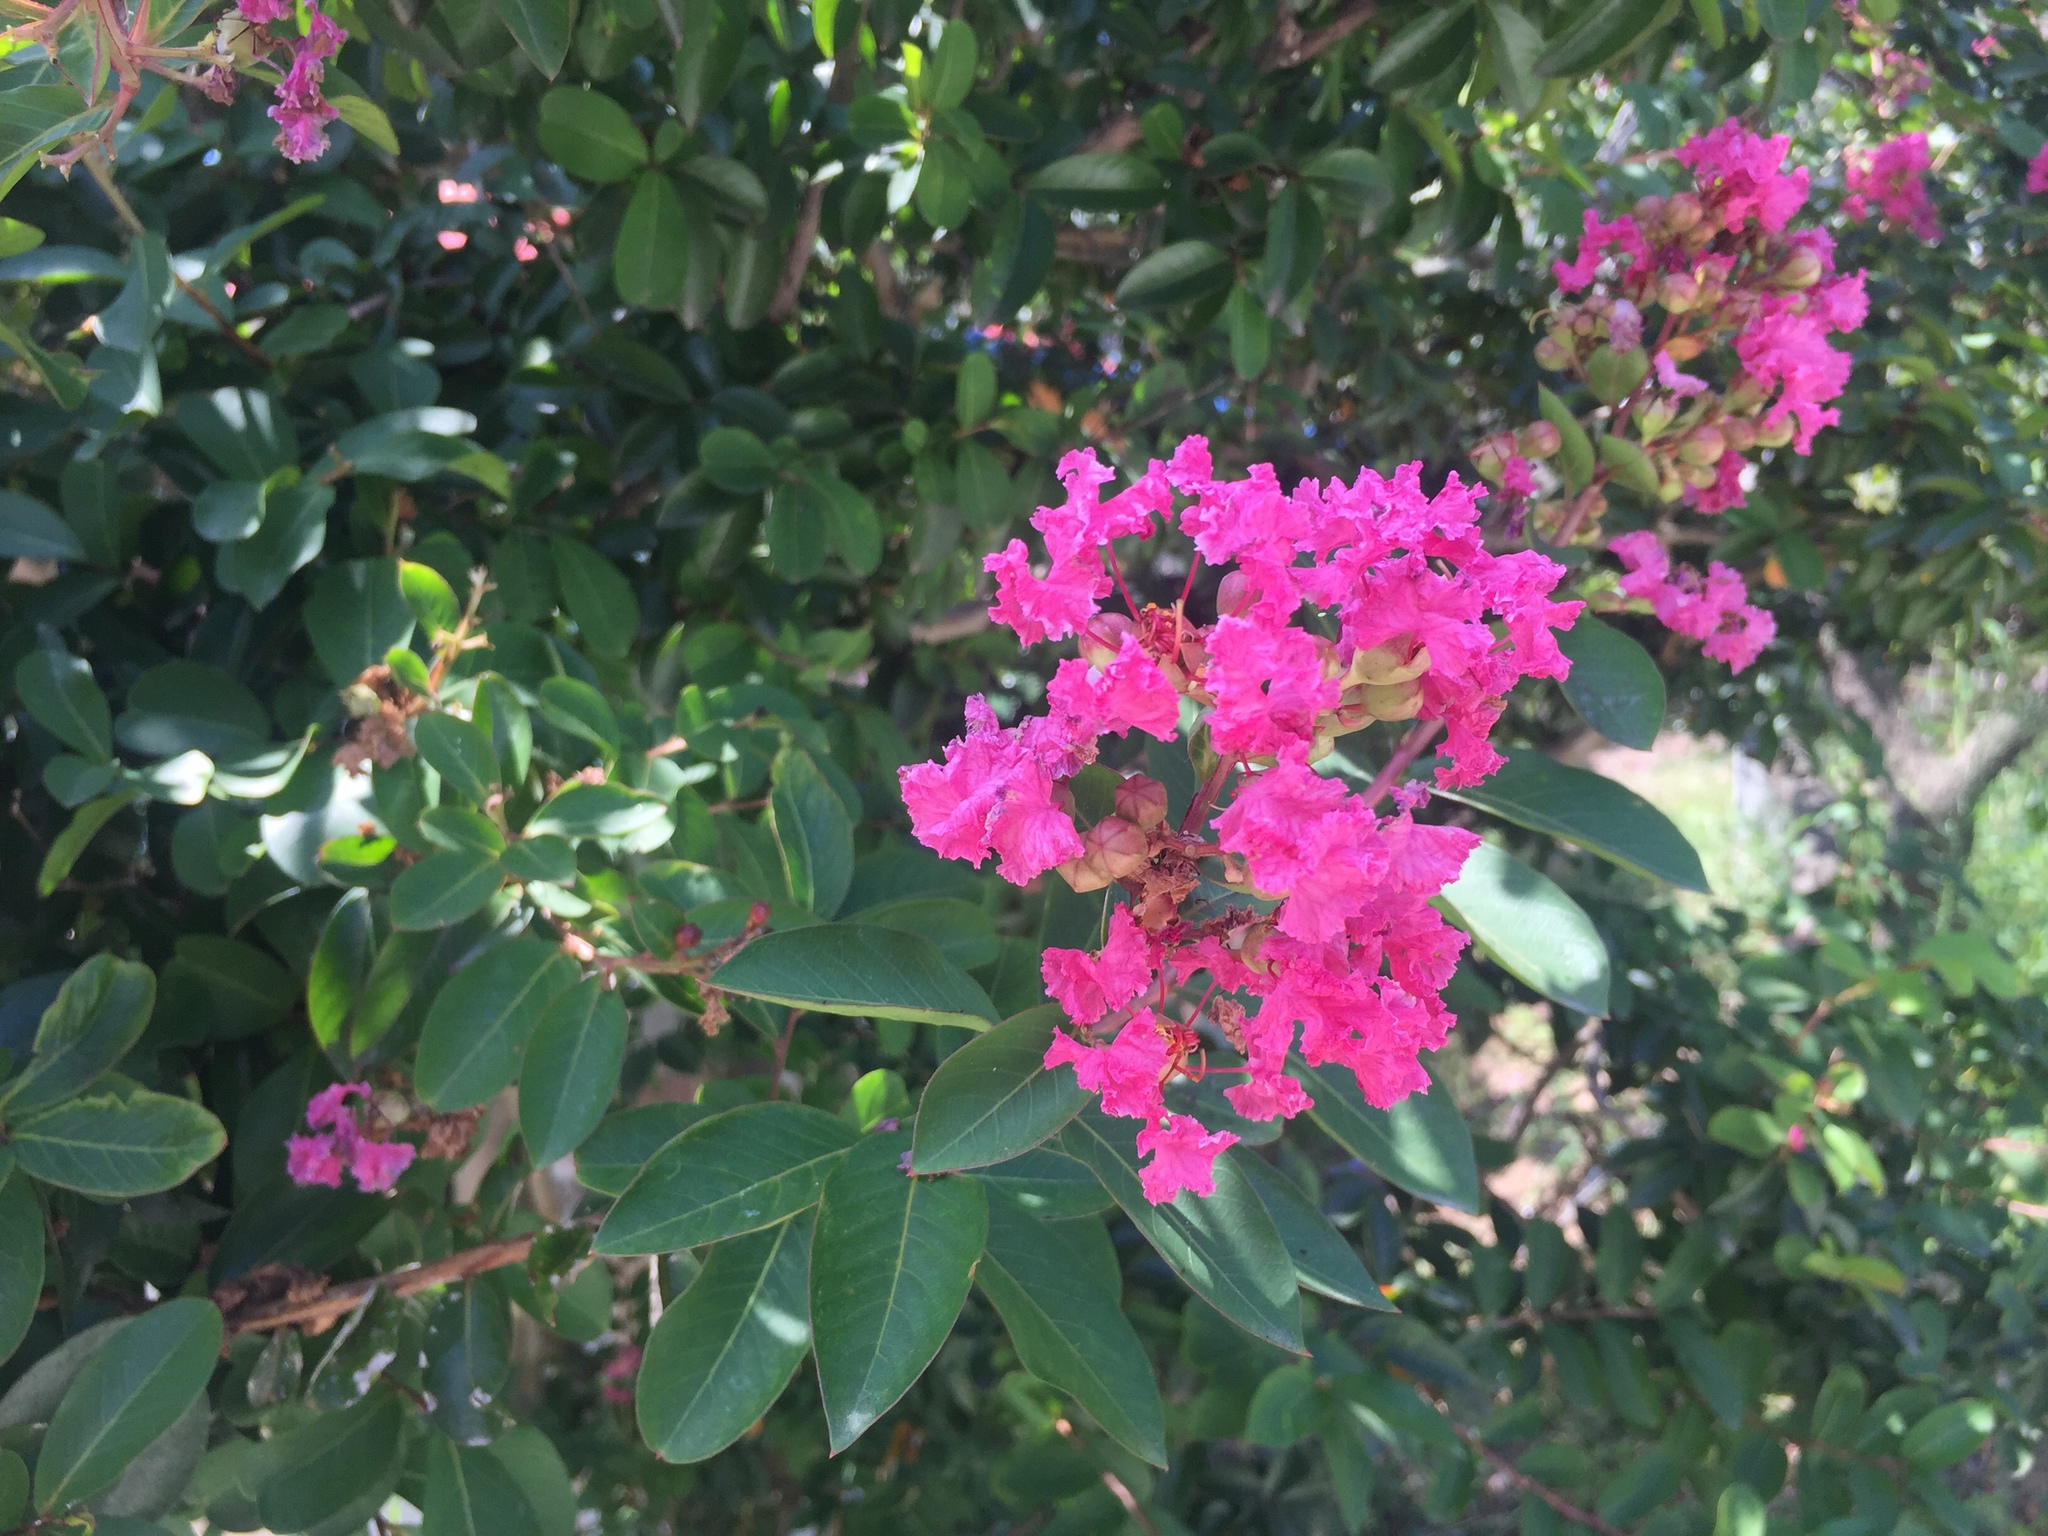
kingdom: Plantae
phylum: Tracheophyta
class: Magnoliopsida
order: Myrtales
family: Lythraceae
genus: Lagerstroemia
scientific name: Lagerstroemia indica
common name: Crape-myrtle
